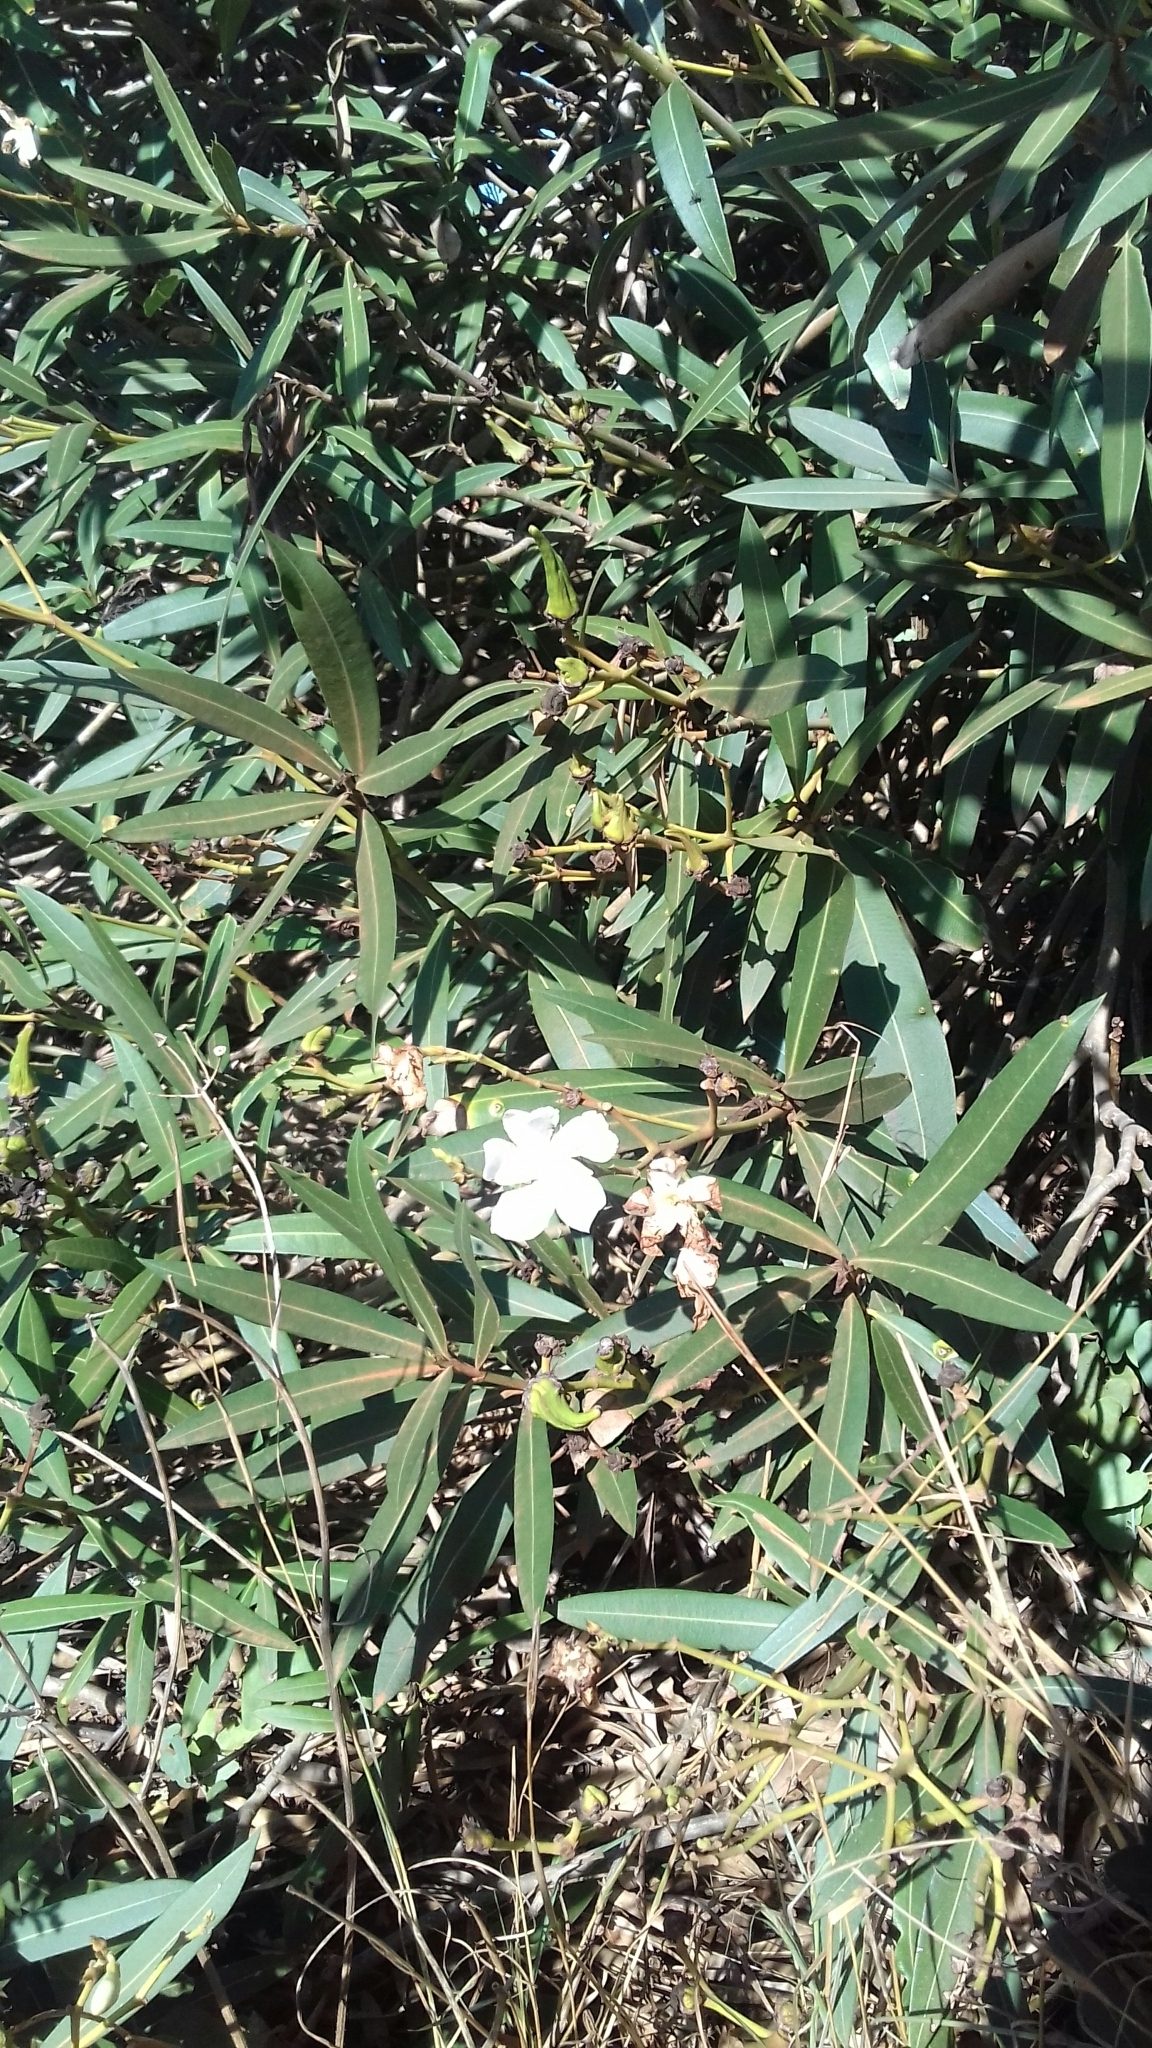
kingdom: Plantae
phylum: Tracheophyta
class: Magnoliopsida
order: Gentianales
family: Apocynaceae
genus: Nerium
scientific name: Nerium oleander
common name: Oleander
